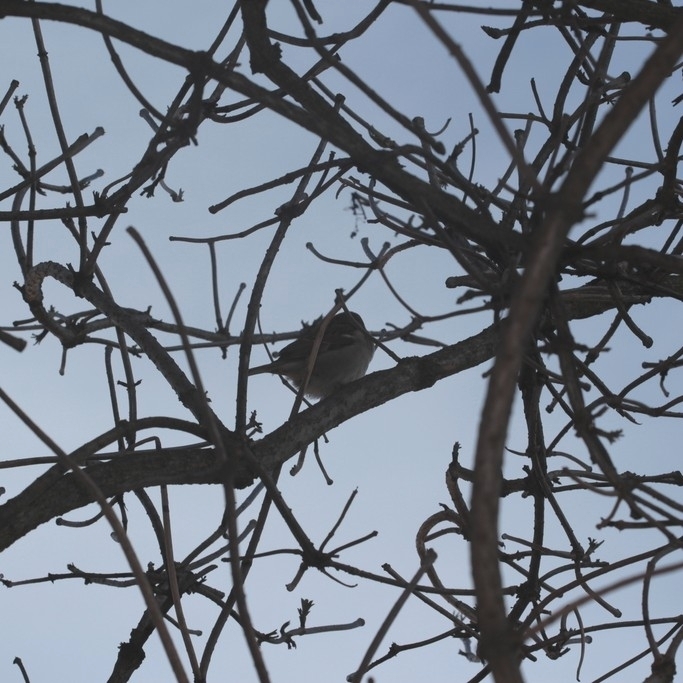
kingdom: Animalia
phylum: Chordata
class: Aves
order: Passeriformes
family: Passeridae
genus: Passer
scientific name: Passer domesticus
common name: House sparrow
